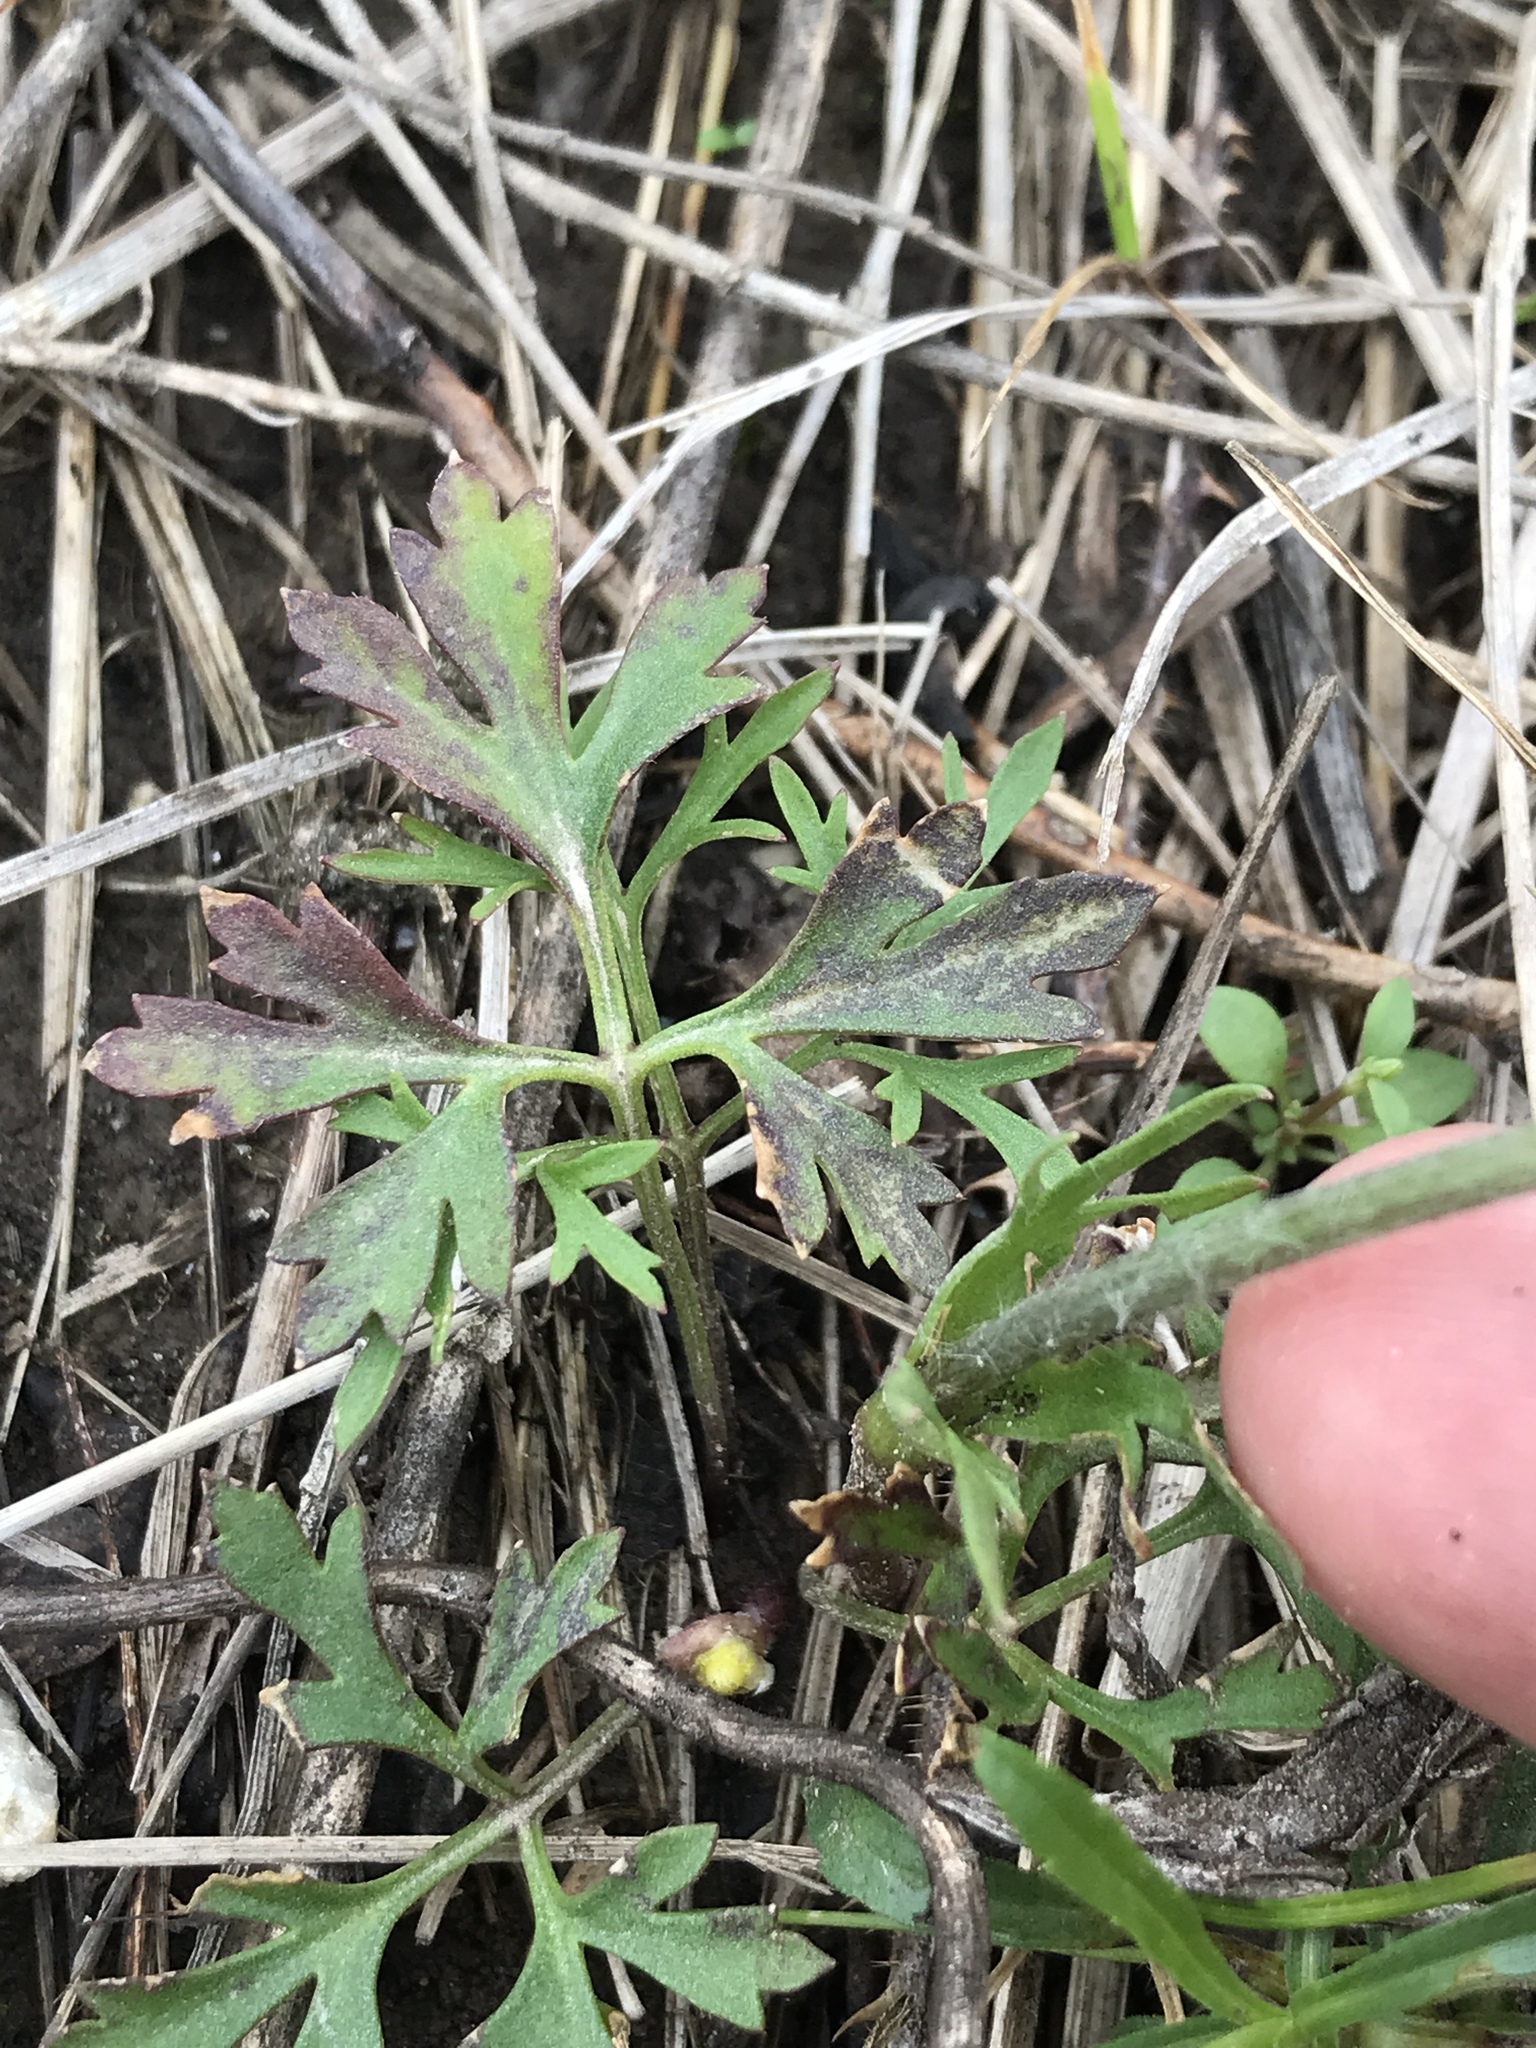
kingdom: Plantae
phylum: Tracheophyta
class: Magnoliopsida
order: Ranunculales
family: Ranunculaceae
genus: Anemone
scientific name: Anemone caroliniana
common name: Carolina anemone
